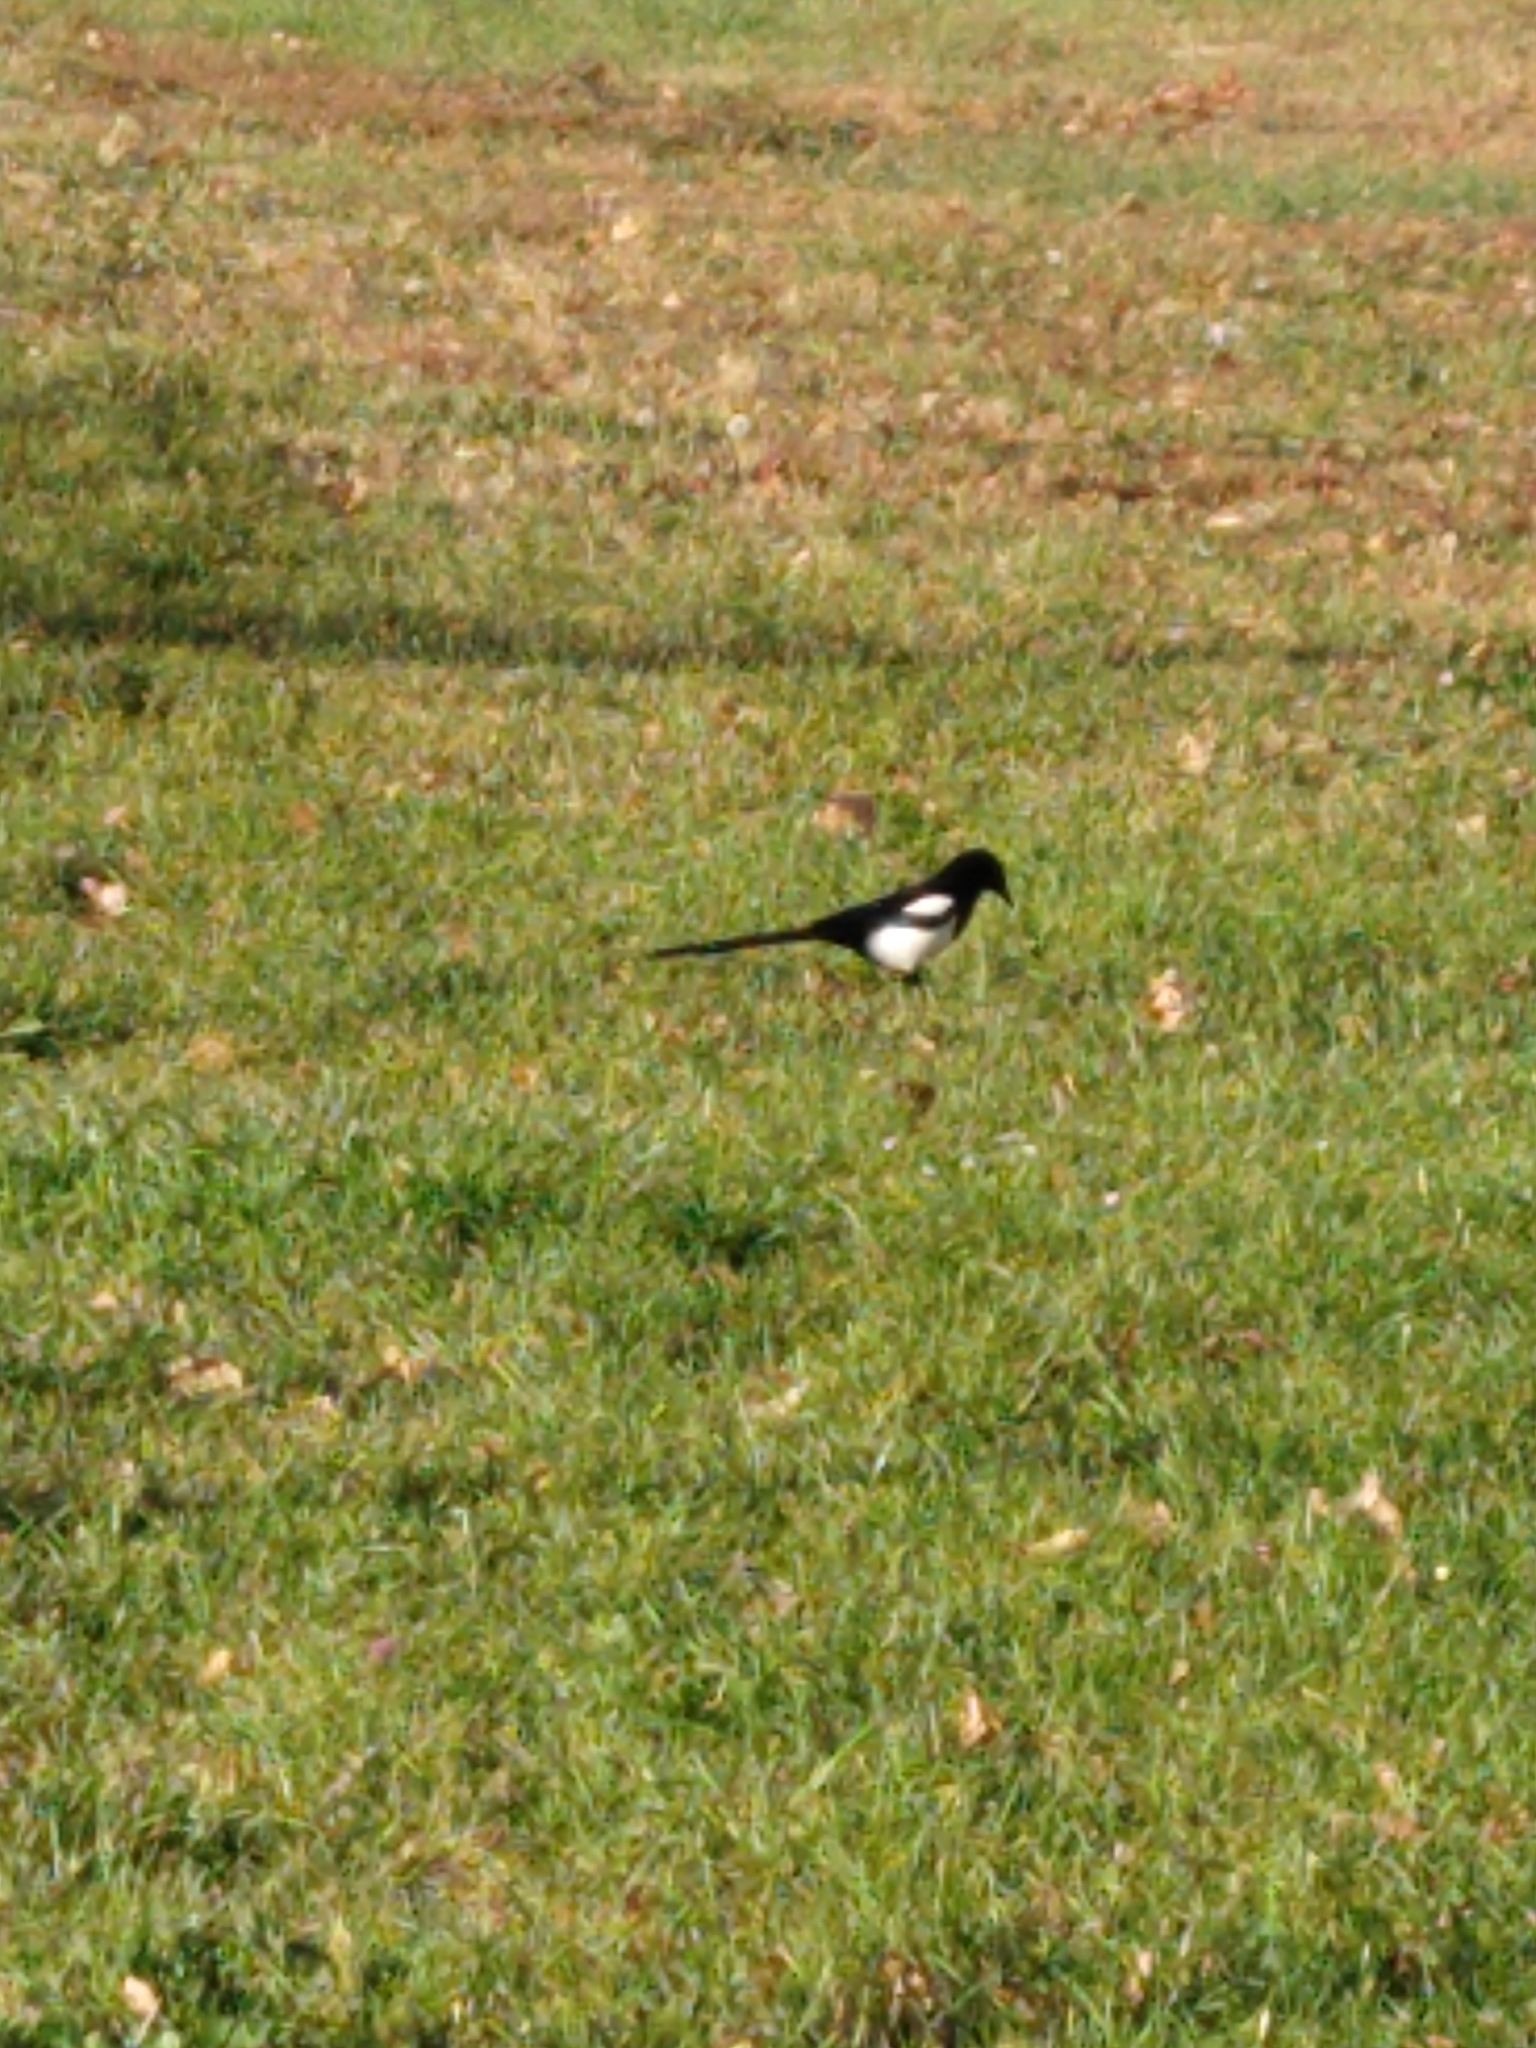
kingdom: Animalia
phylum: Chordata
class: Aves
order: Passeriformes
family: Corvidae
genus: Pica
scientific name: Pica pica
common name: Eurasian magpie
